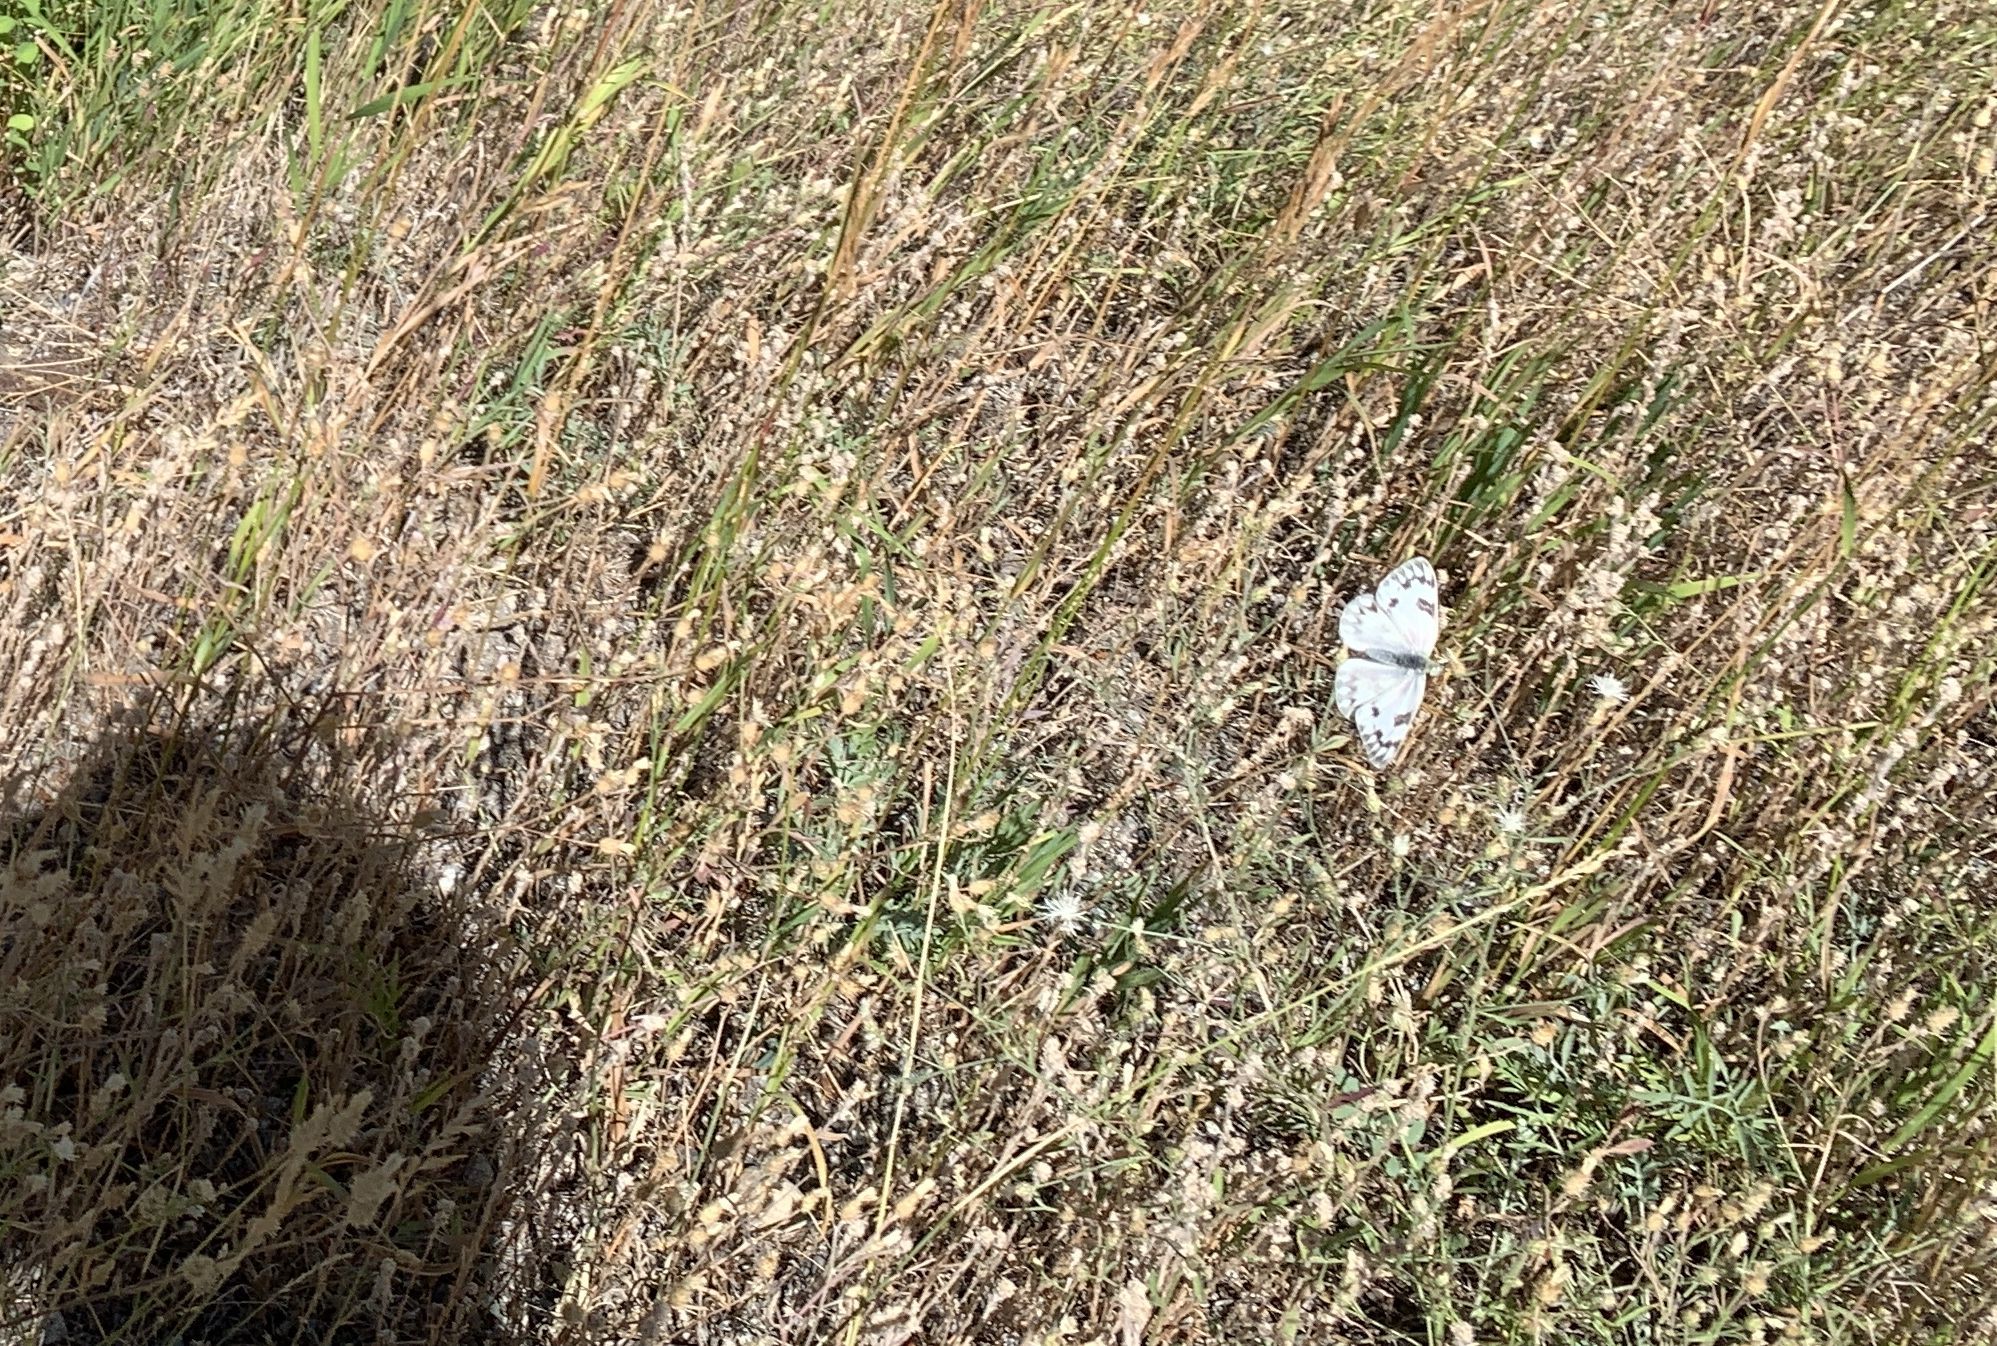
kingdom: Animalia
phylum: Arthropoda
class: Insecta
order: Lepidoptera
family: Pieridae
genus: Pontia
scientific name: Pontia occidentalis
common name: Western white
